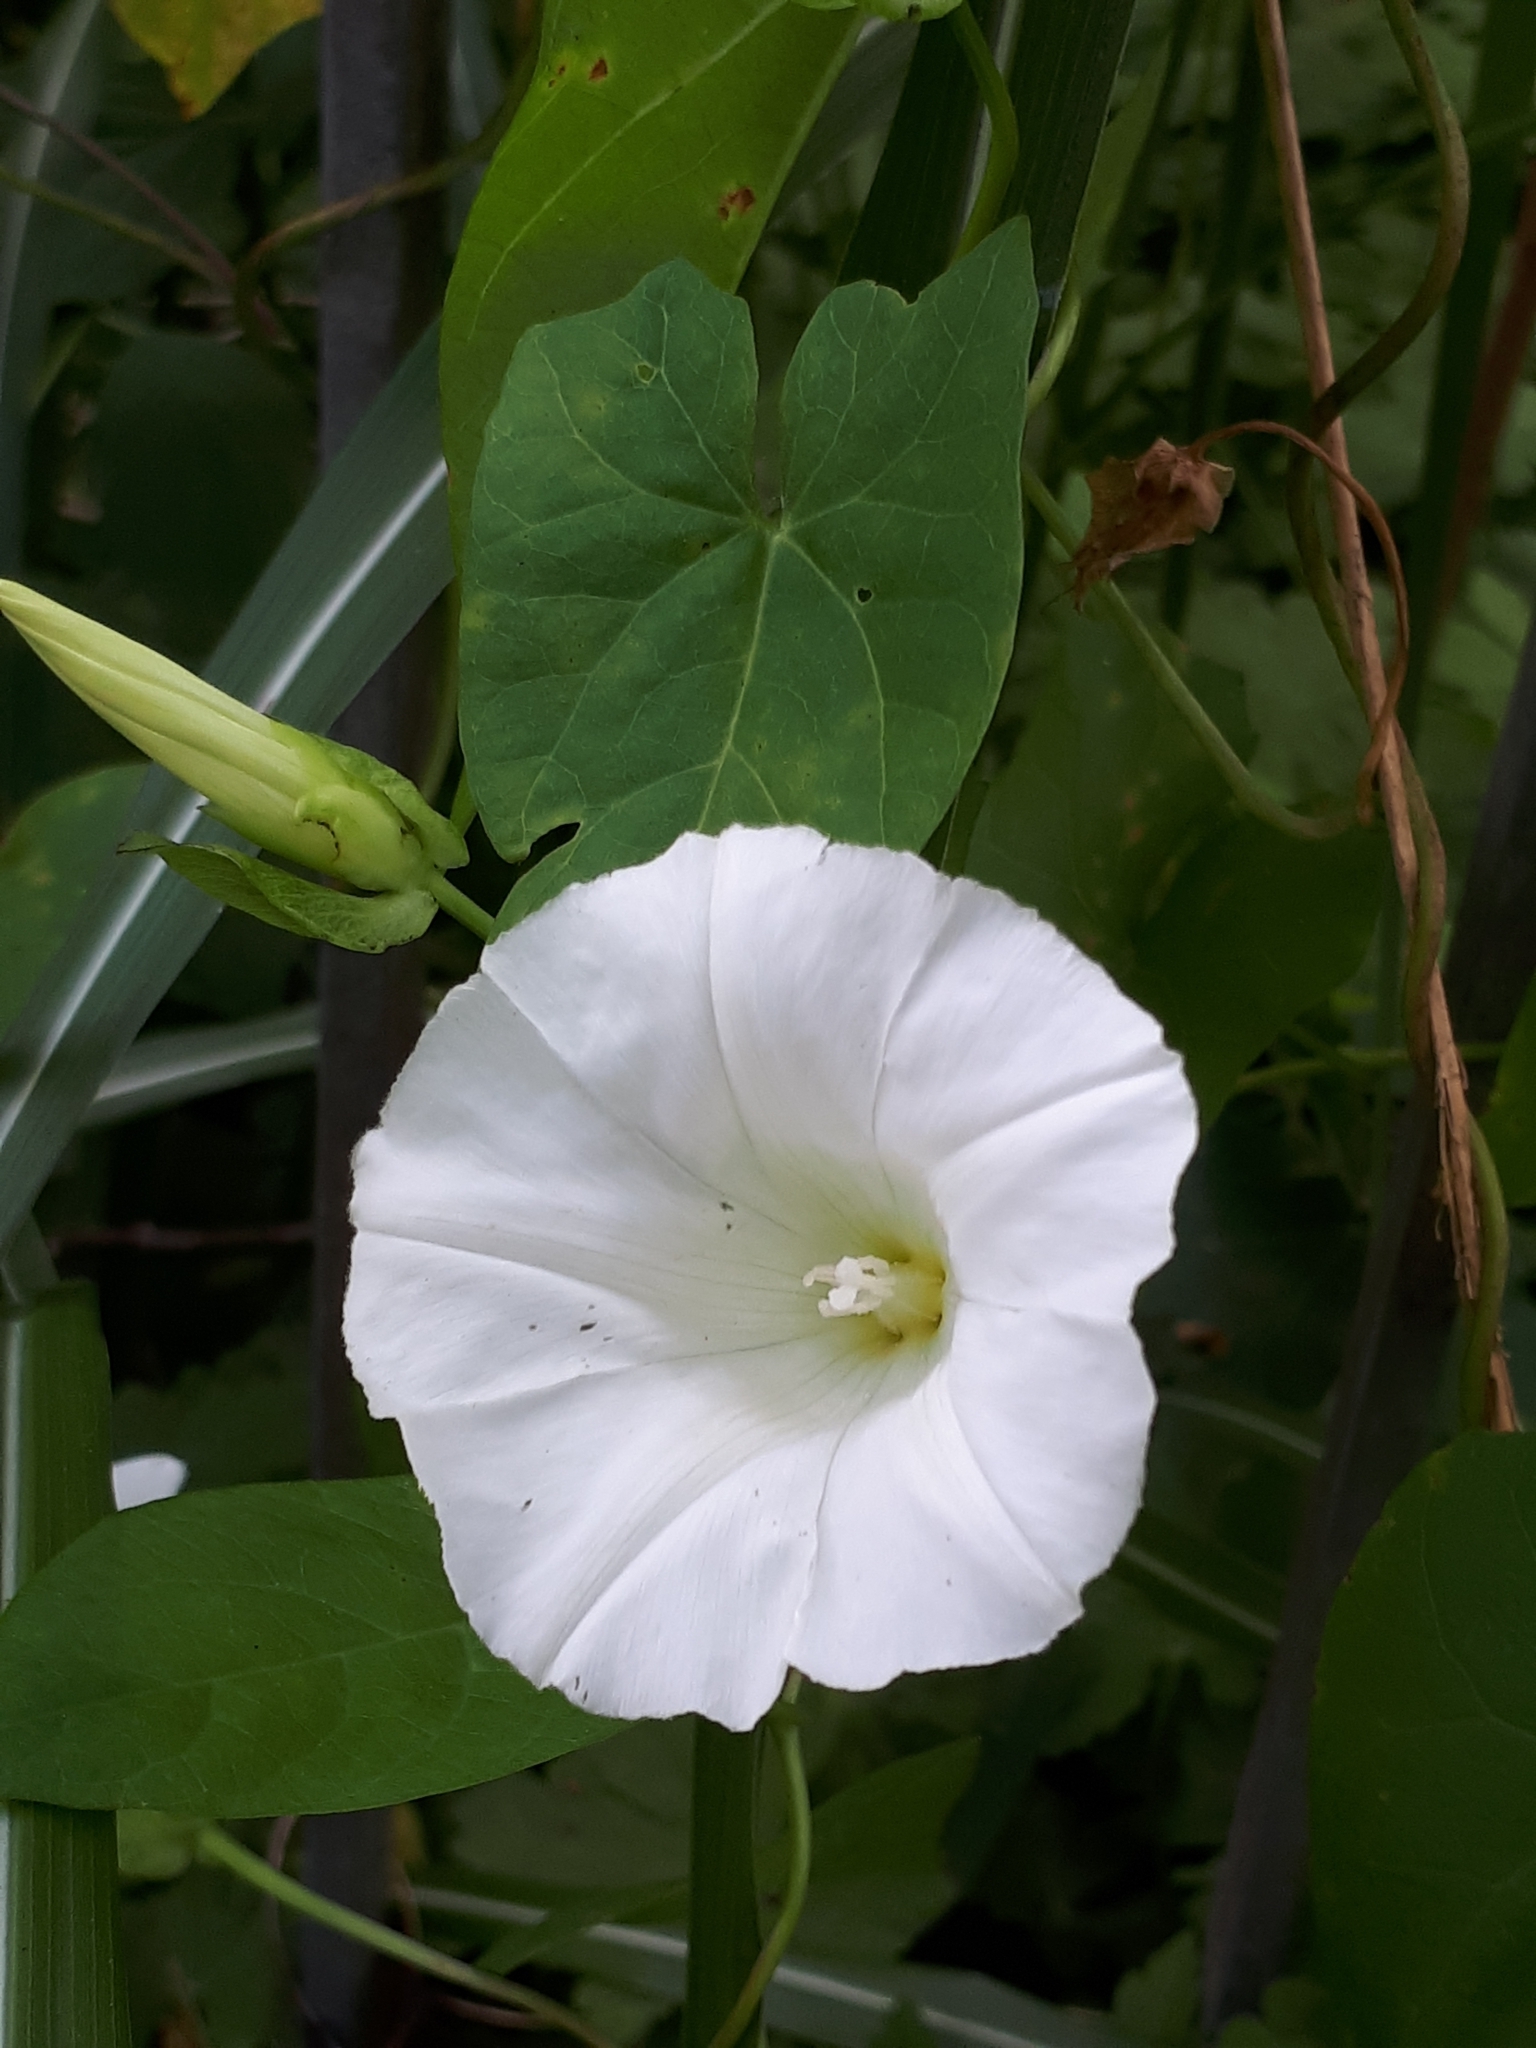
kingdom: Plantae
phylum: Tracheophyta
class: Magnoliopsida
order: Solanales
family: Convolvulaceae
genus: Calystegia
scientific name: Calystegia sepium
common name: Hedge bindweed
